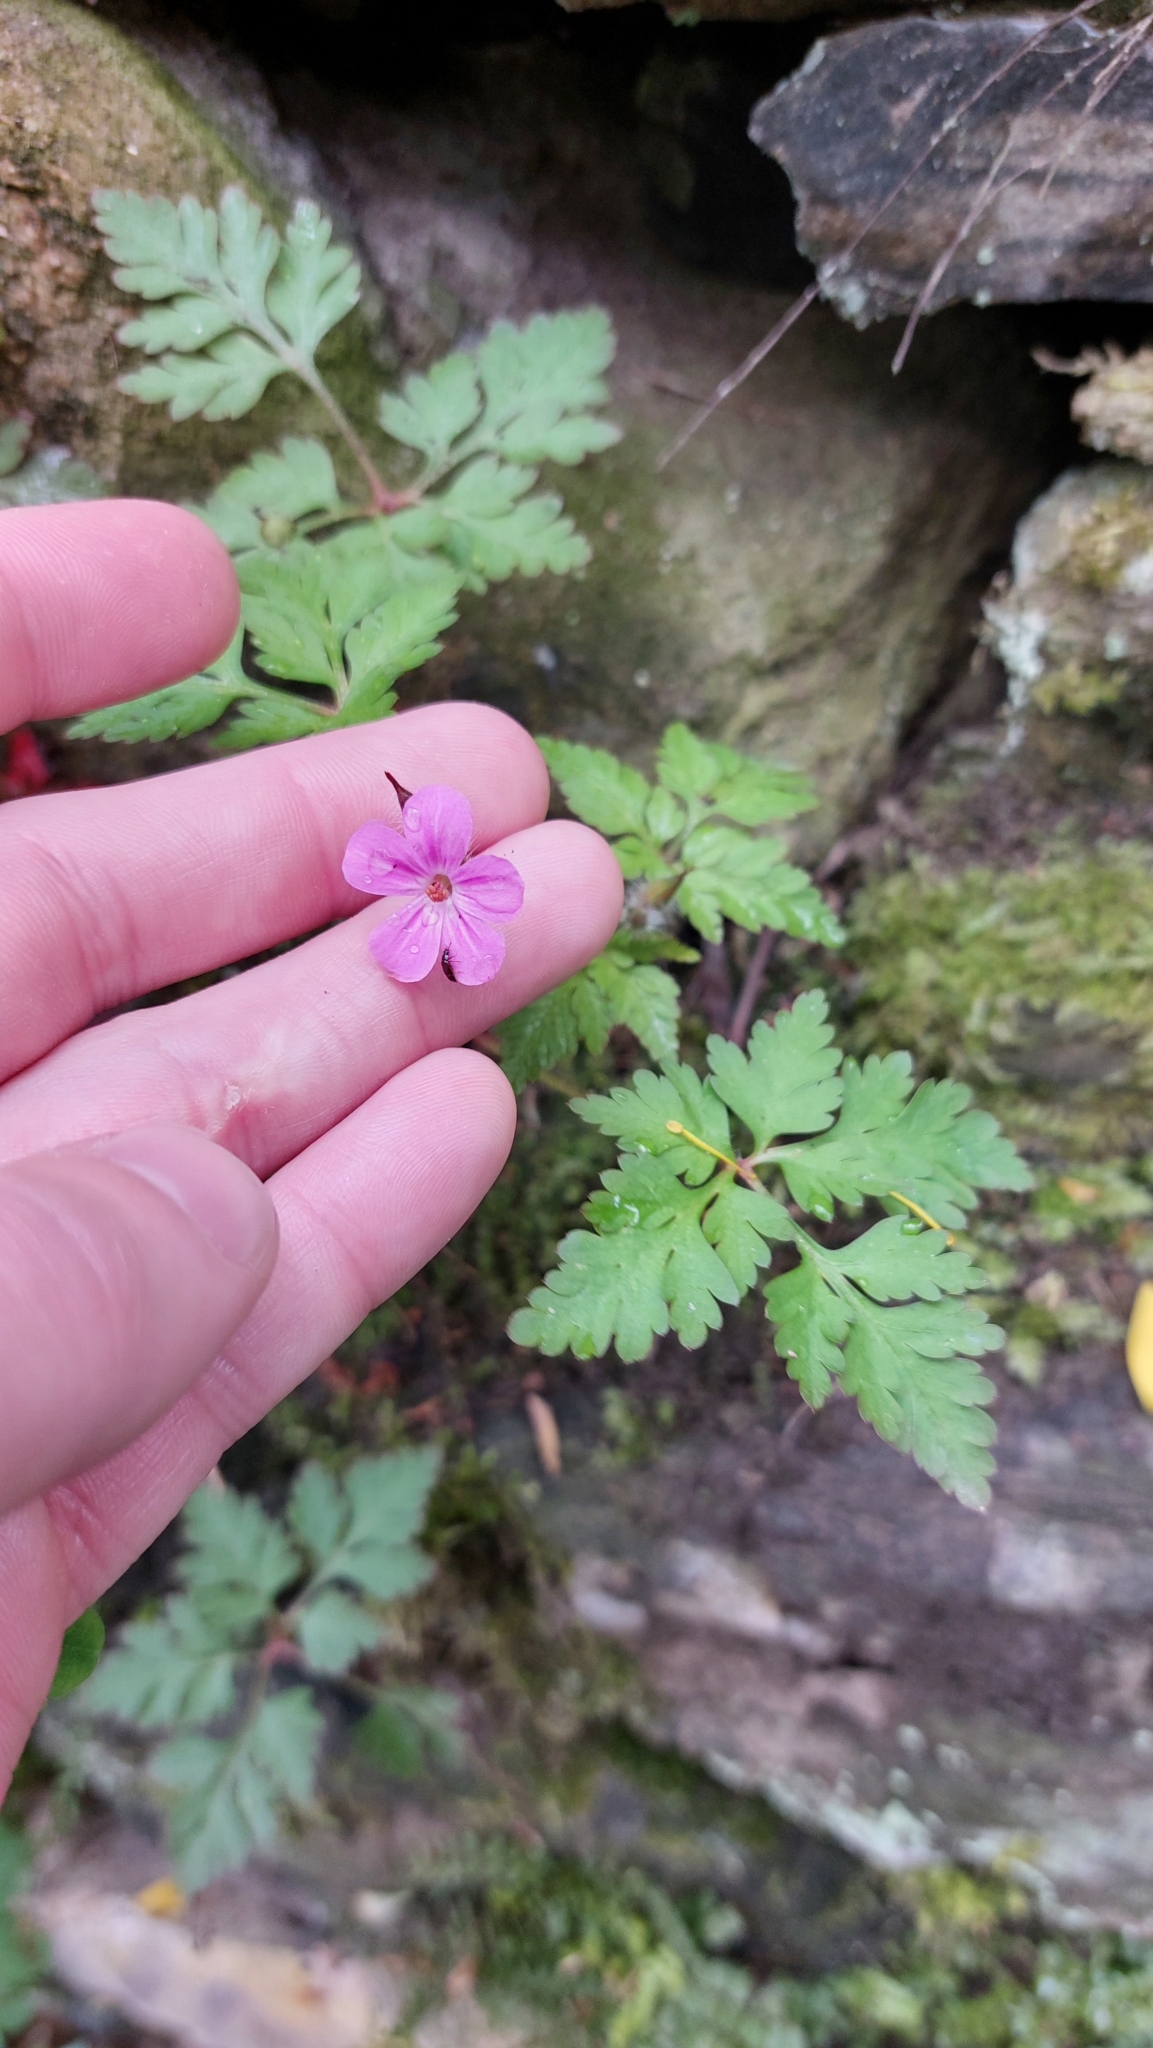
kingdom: Plantae
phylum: Tracheophyta
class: Magnoliopsida
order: Geraniales
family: Geraniaceae
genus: Geranium
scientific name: Geranium robertianum
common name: Herb-robert
